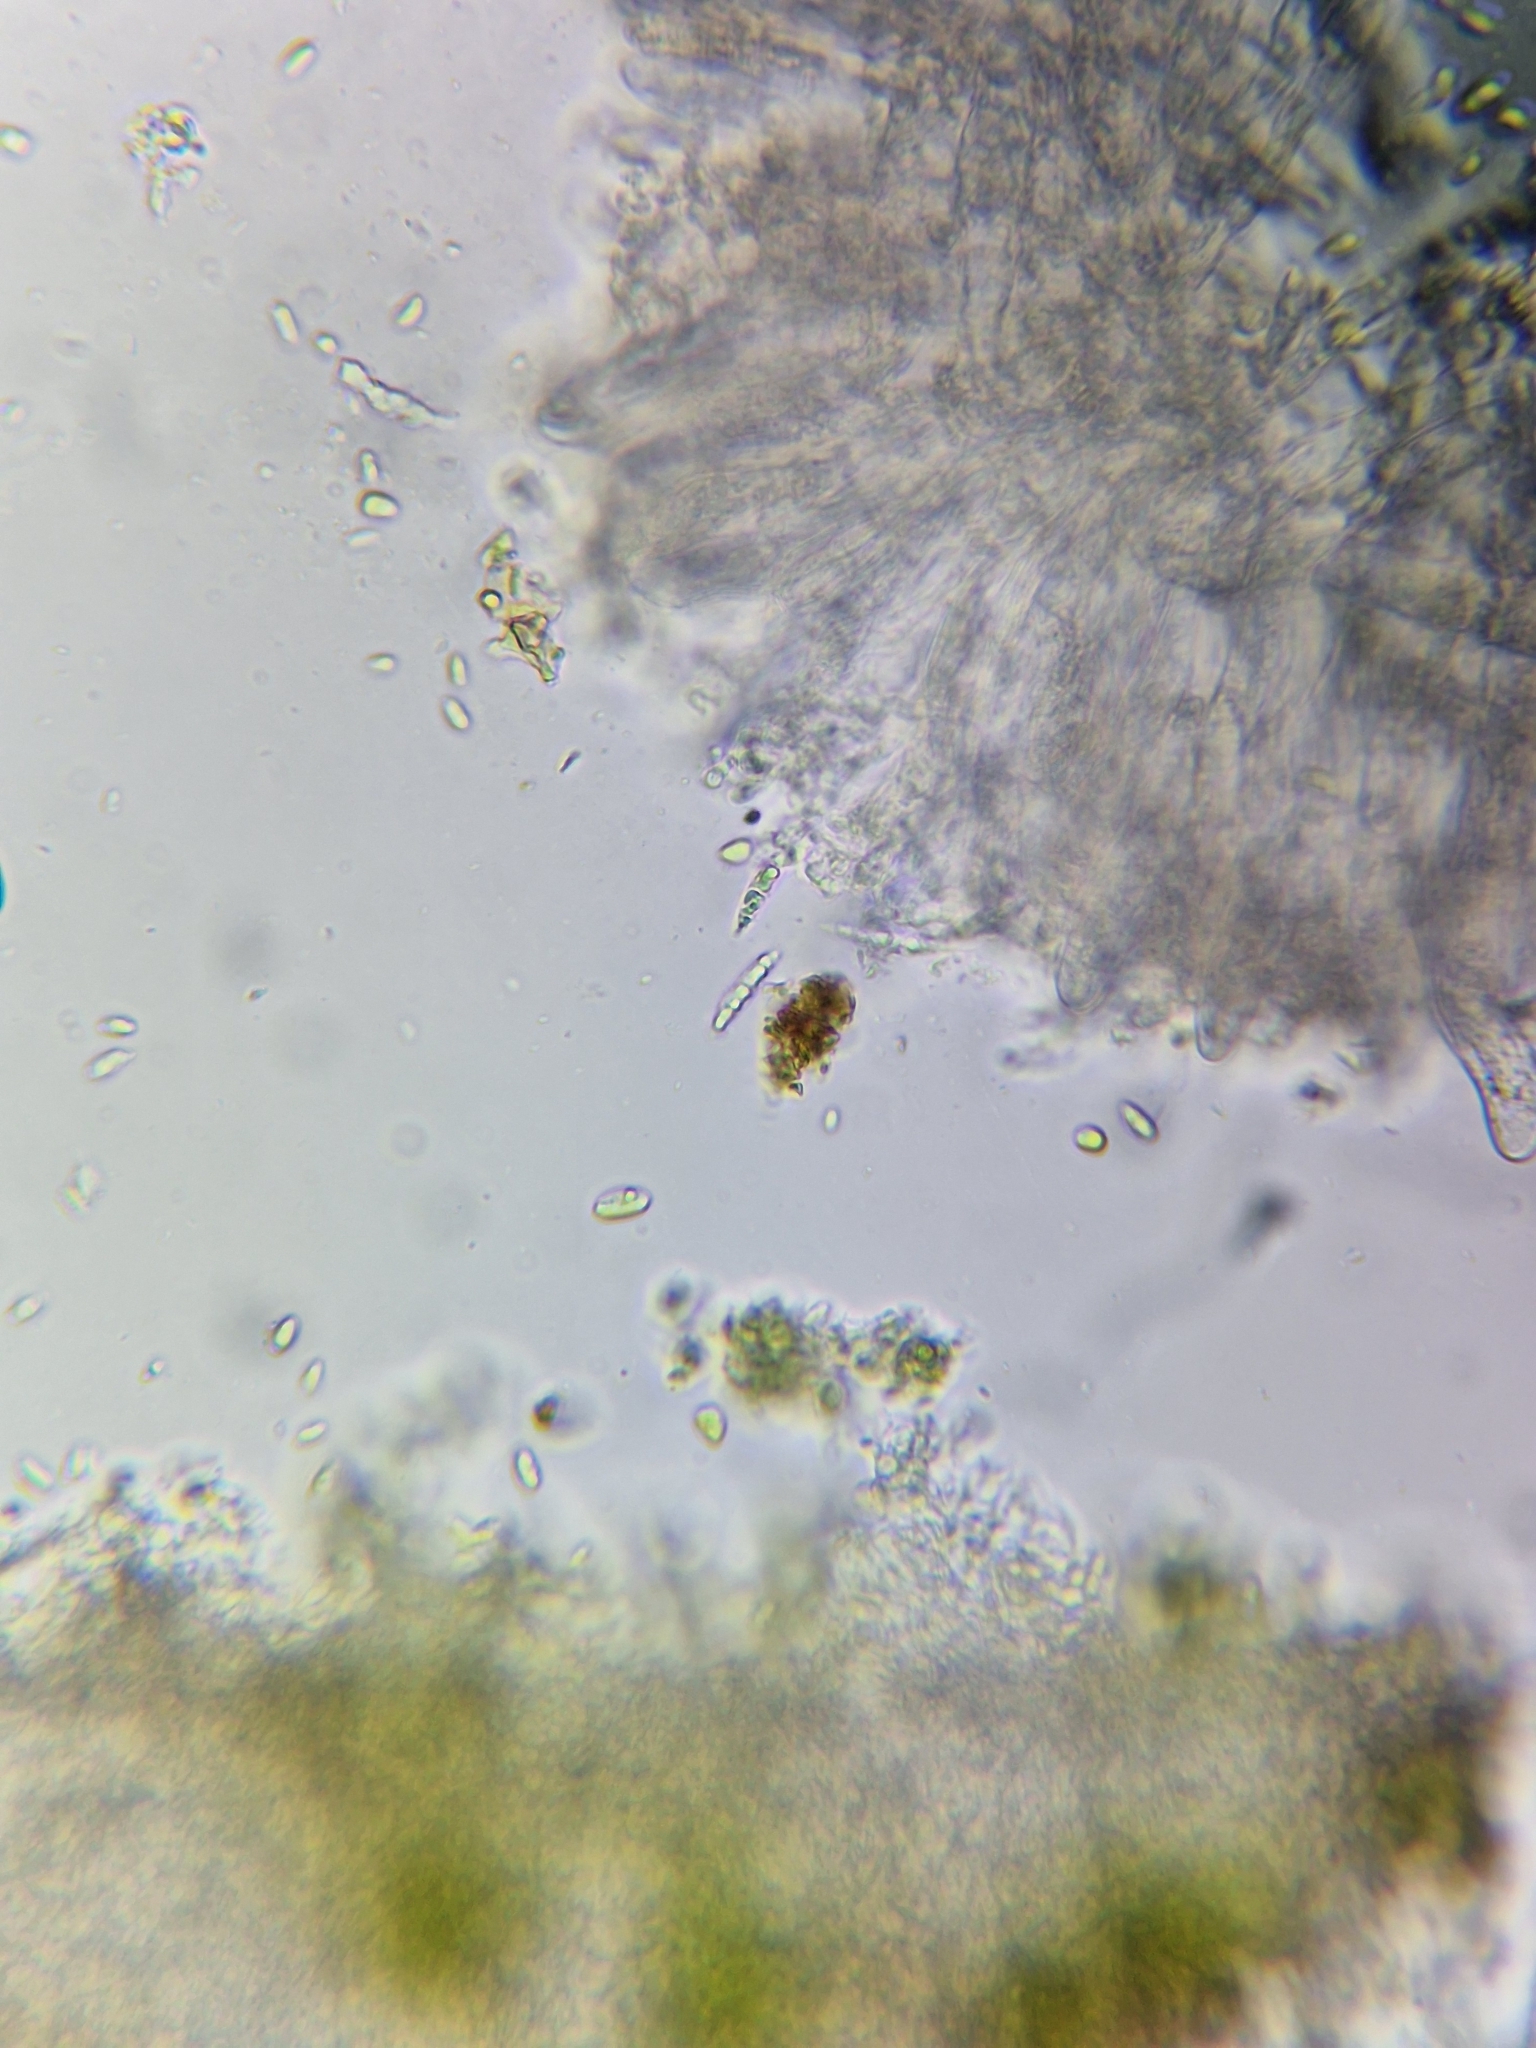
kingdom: Fungi
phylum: Ascomycota
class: Leotiomycetes
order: Helotiales
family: Hyaloscyphaceae
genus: Polydesmia
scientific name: Polydesmia pruinosa
